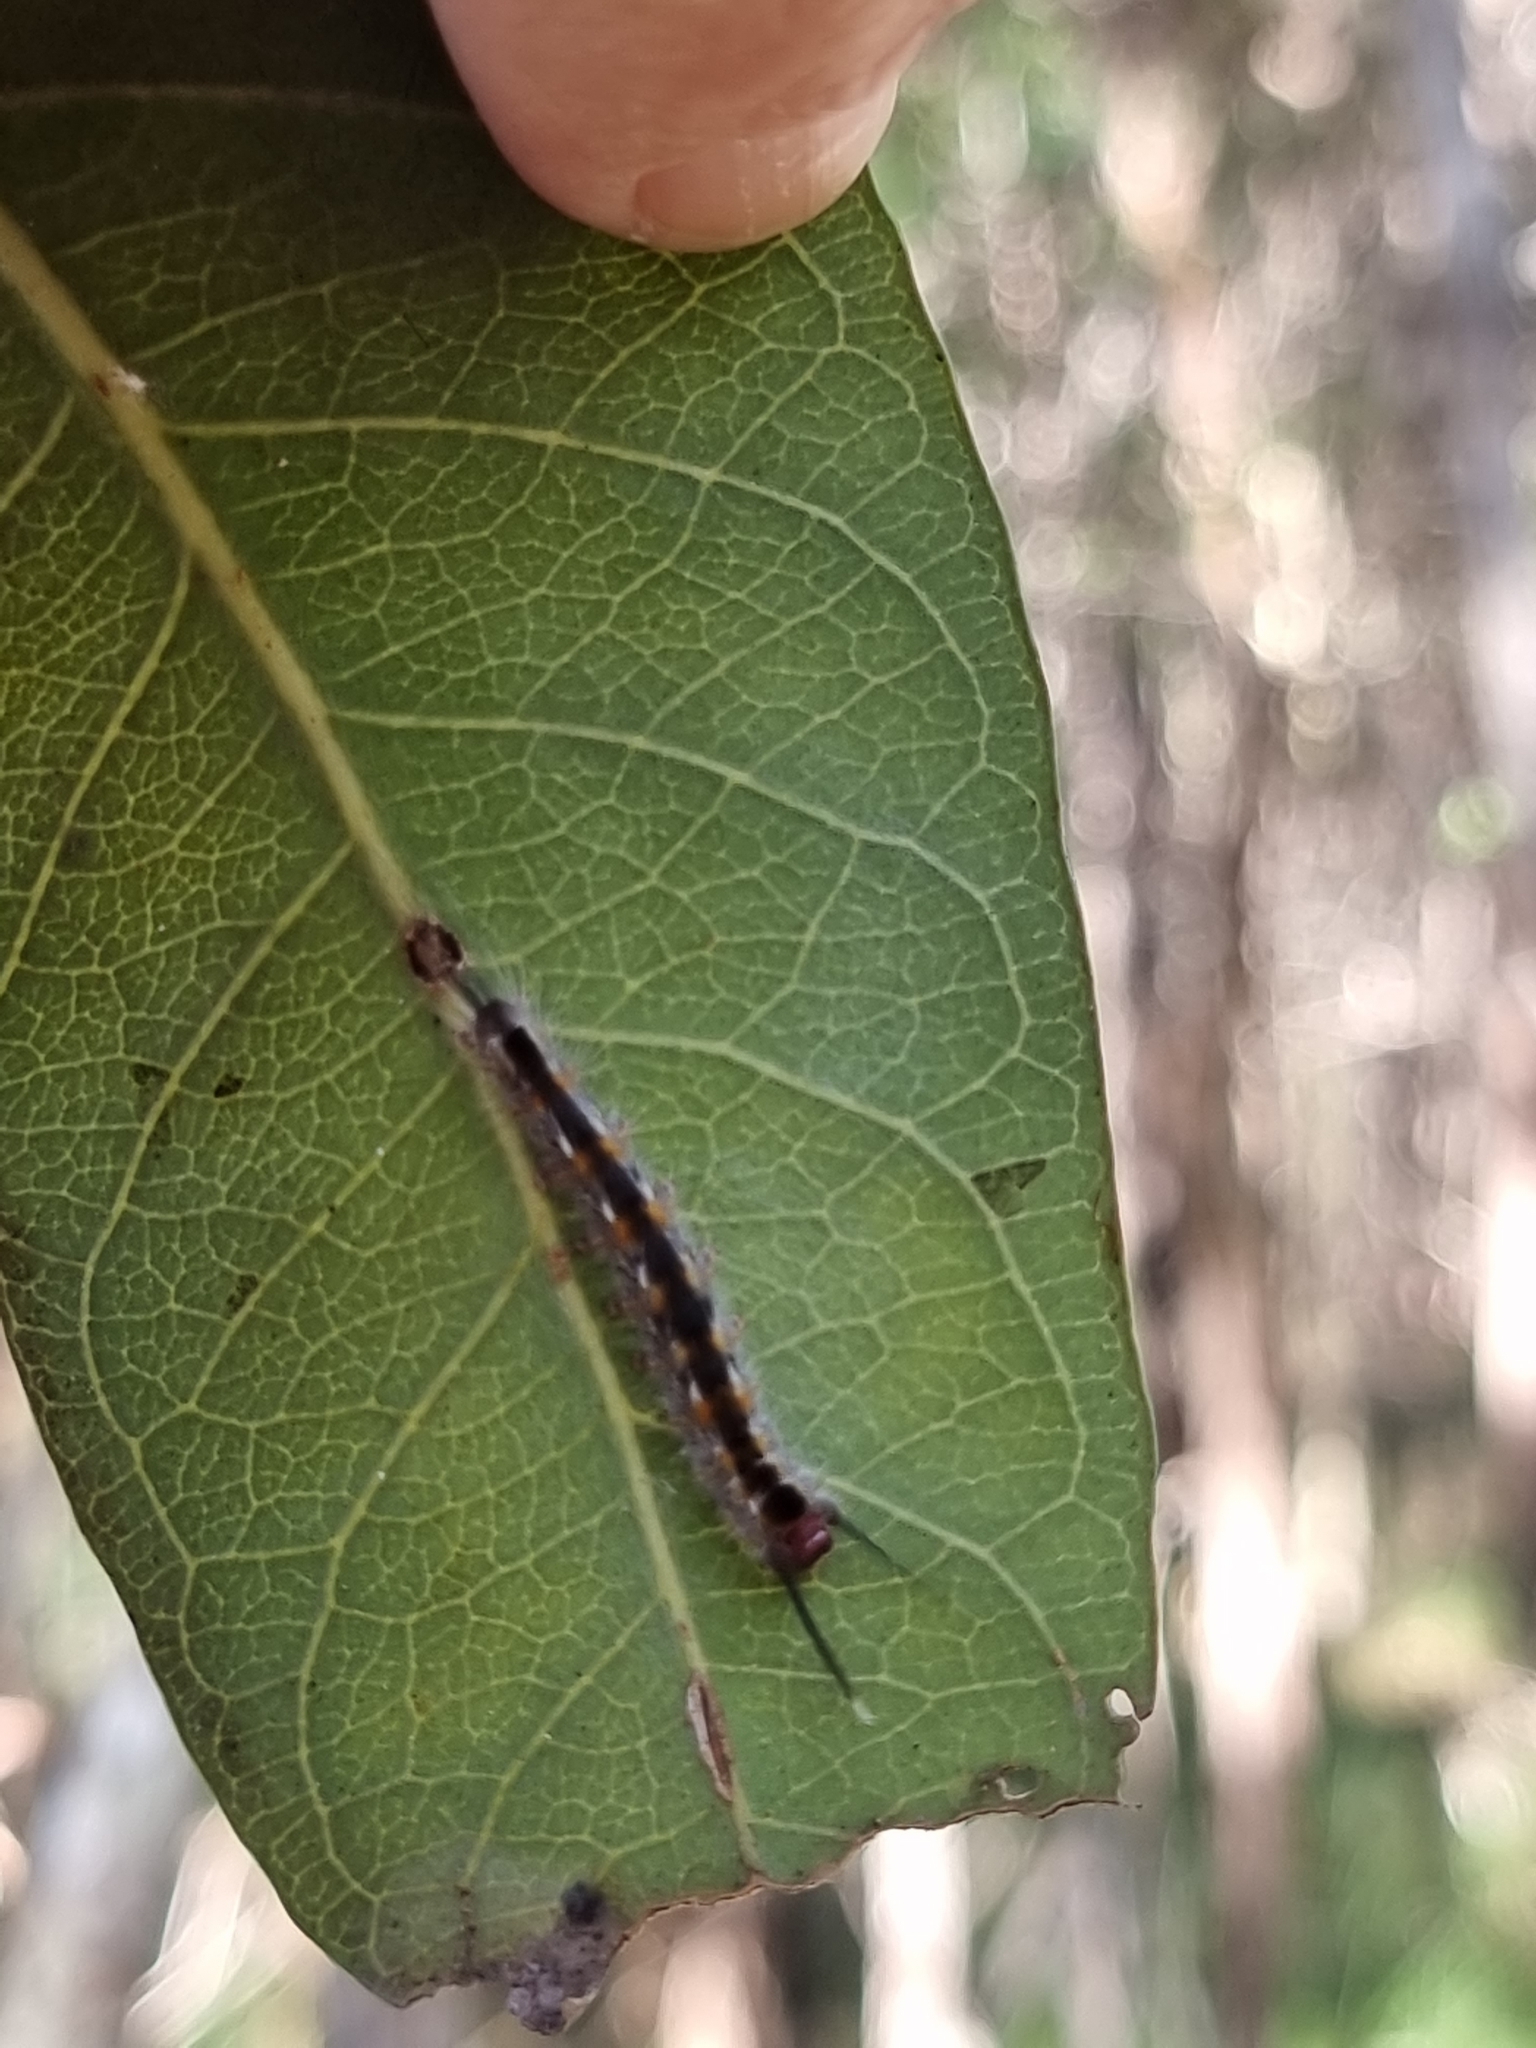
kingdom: Animalia
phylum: Arthropoda
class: Insecta
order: Lepidoptera
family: Anthelidae
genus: Nataxa
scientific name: Nataxa flavescens
